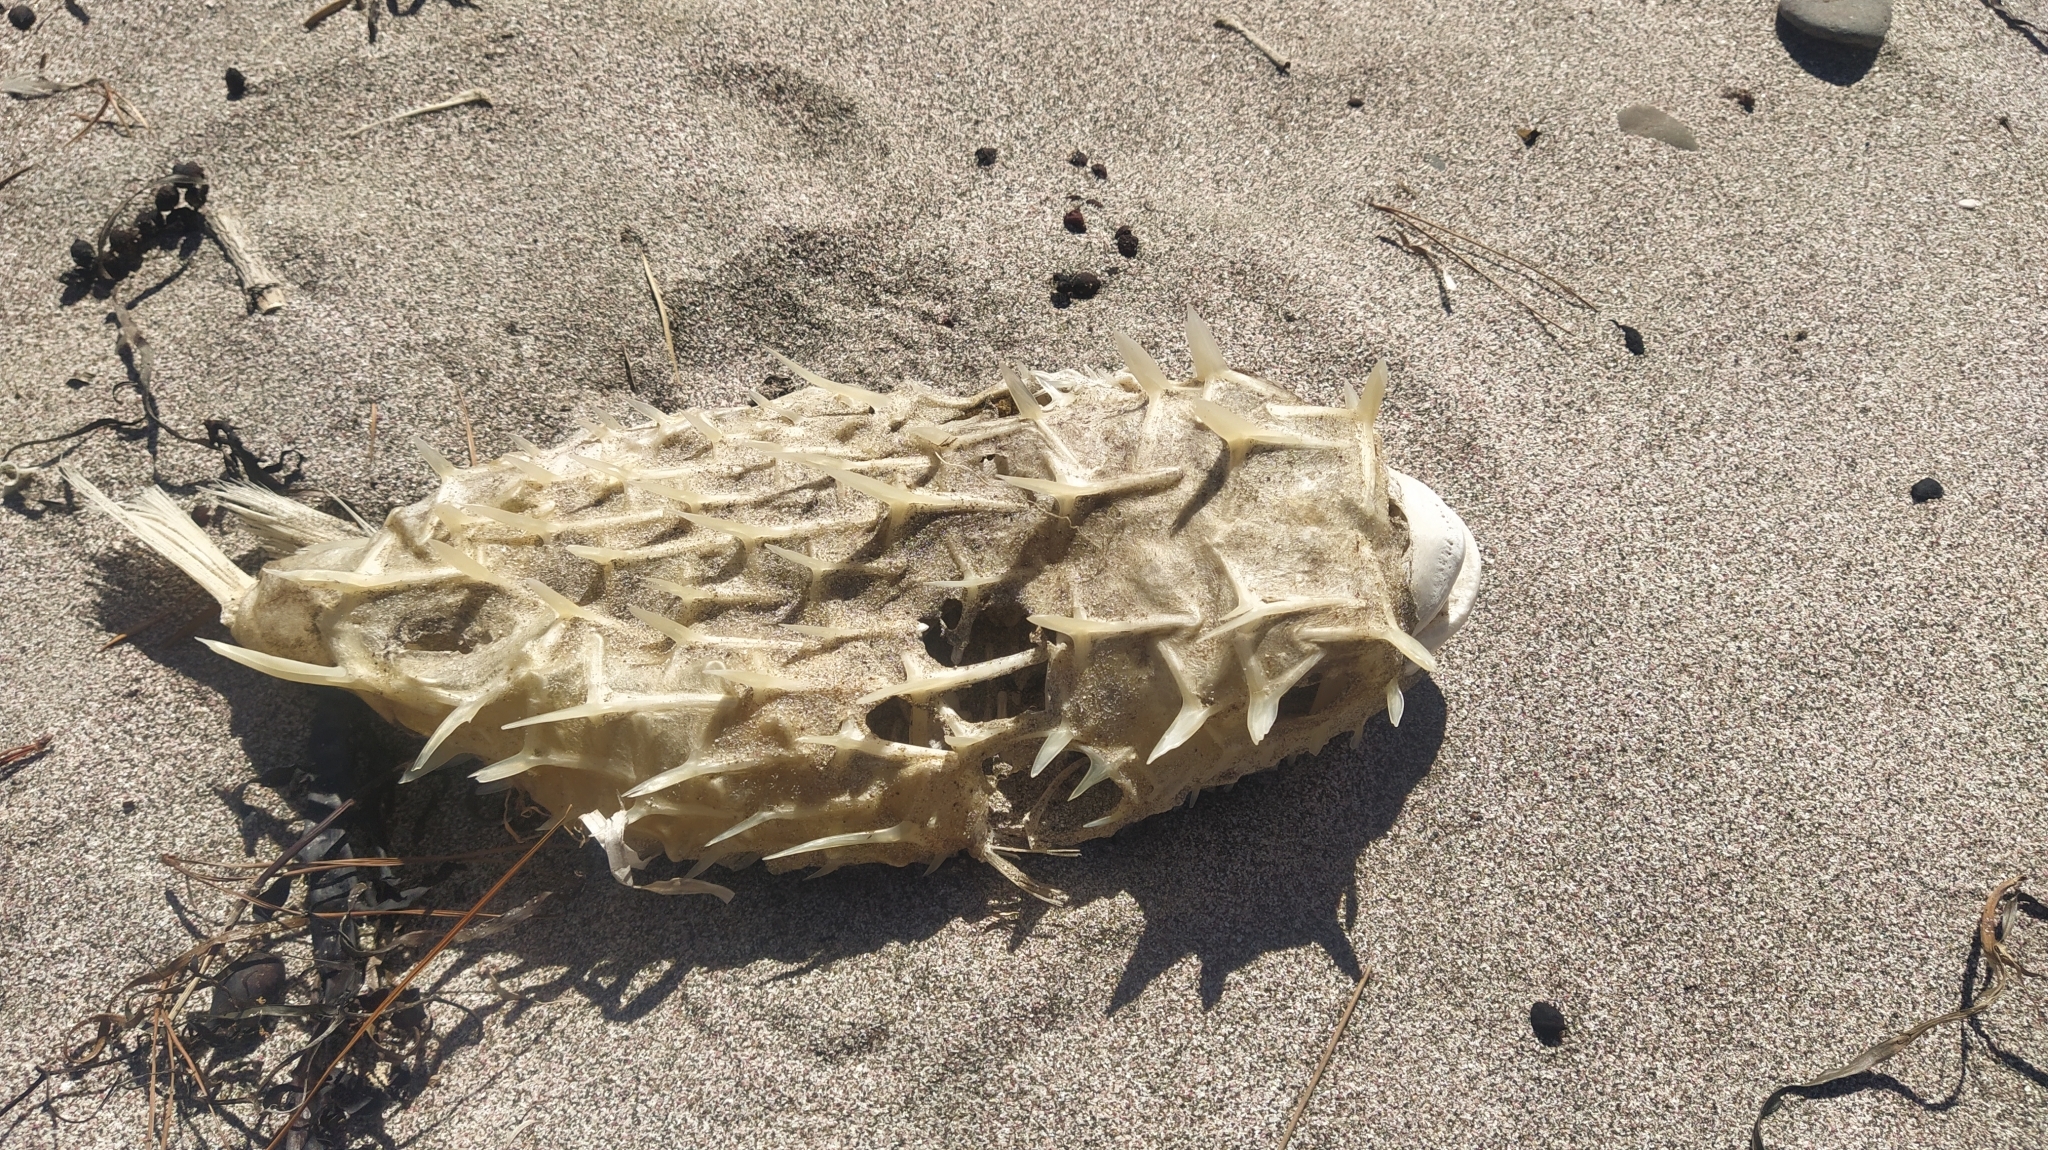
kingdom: Animalia
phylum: Chordata
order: Tetraodontiformes
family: Diodontidae
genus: Allomycterus
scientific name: Allomycterus pilatus
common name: No common name
